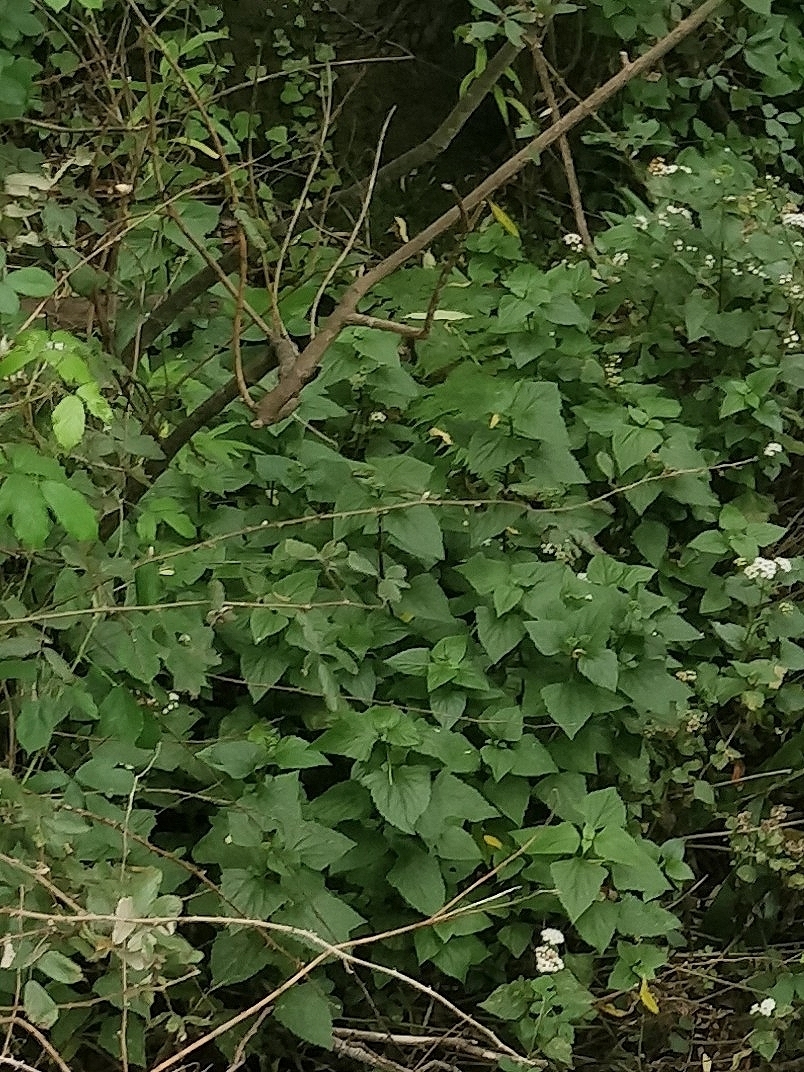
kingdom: Plantae
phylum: Tracheophyta
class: Magnoliopsida
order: Asterales
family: Asteraceae
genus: Ageratina
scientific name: Ageratina adenophora
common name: Sticky snakeroot
